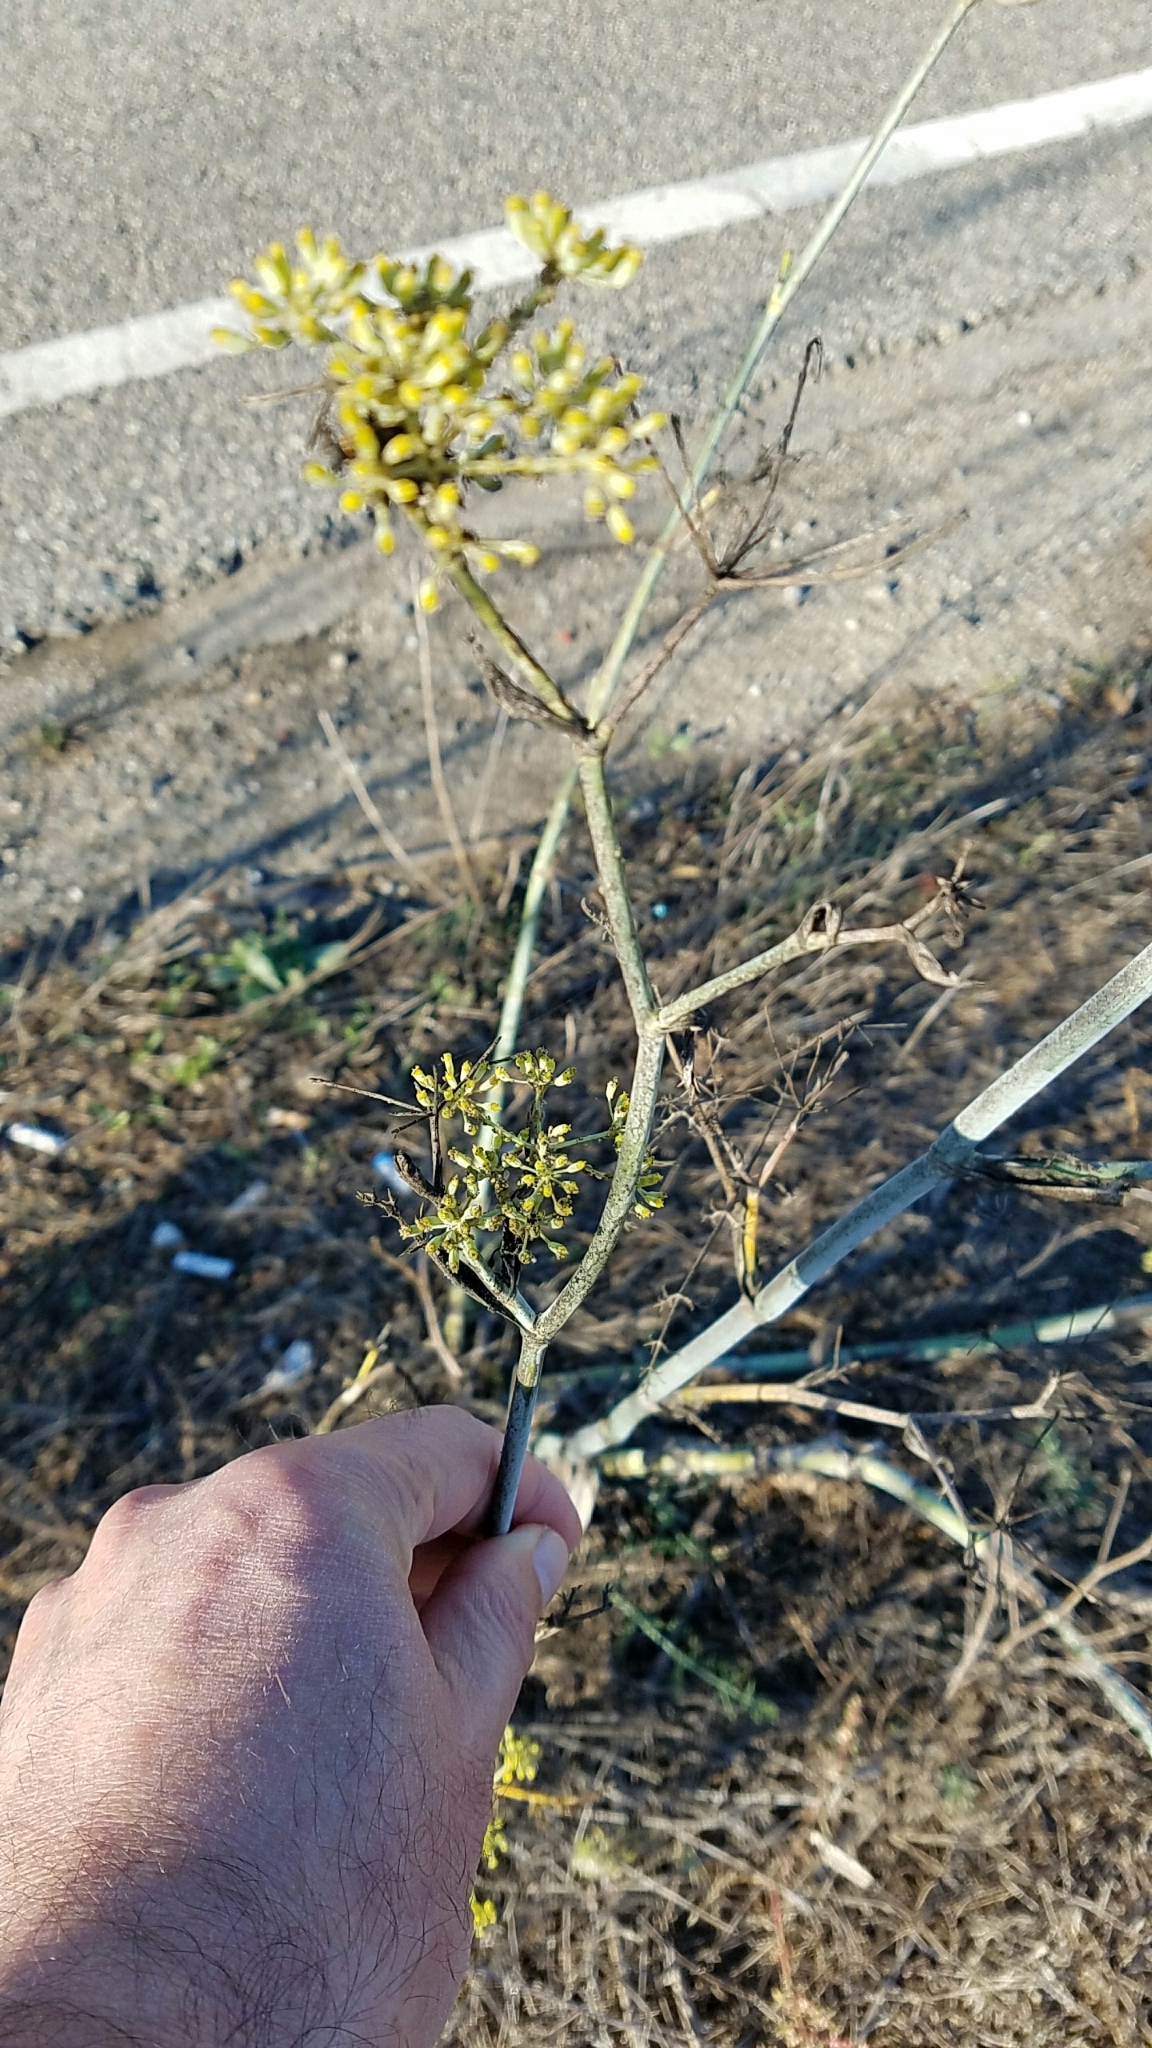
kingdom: Plantae
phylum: Tracheophyta
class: Magnoliopsida
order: Apiales
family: Apiaceae
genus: Foeniculum
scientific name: Foeniculum vulgare
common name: Fennel
